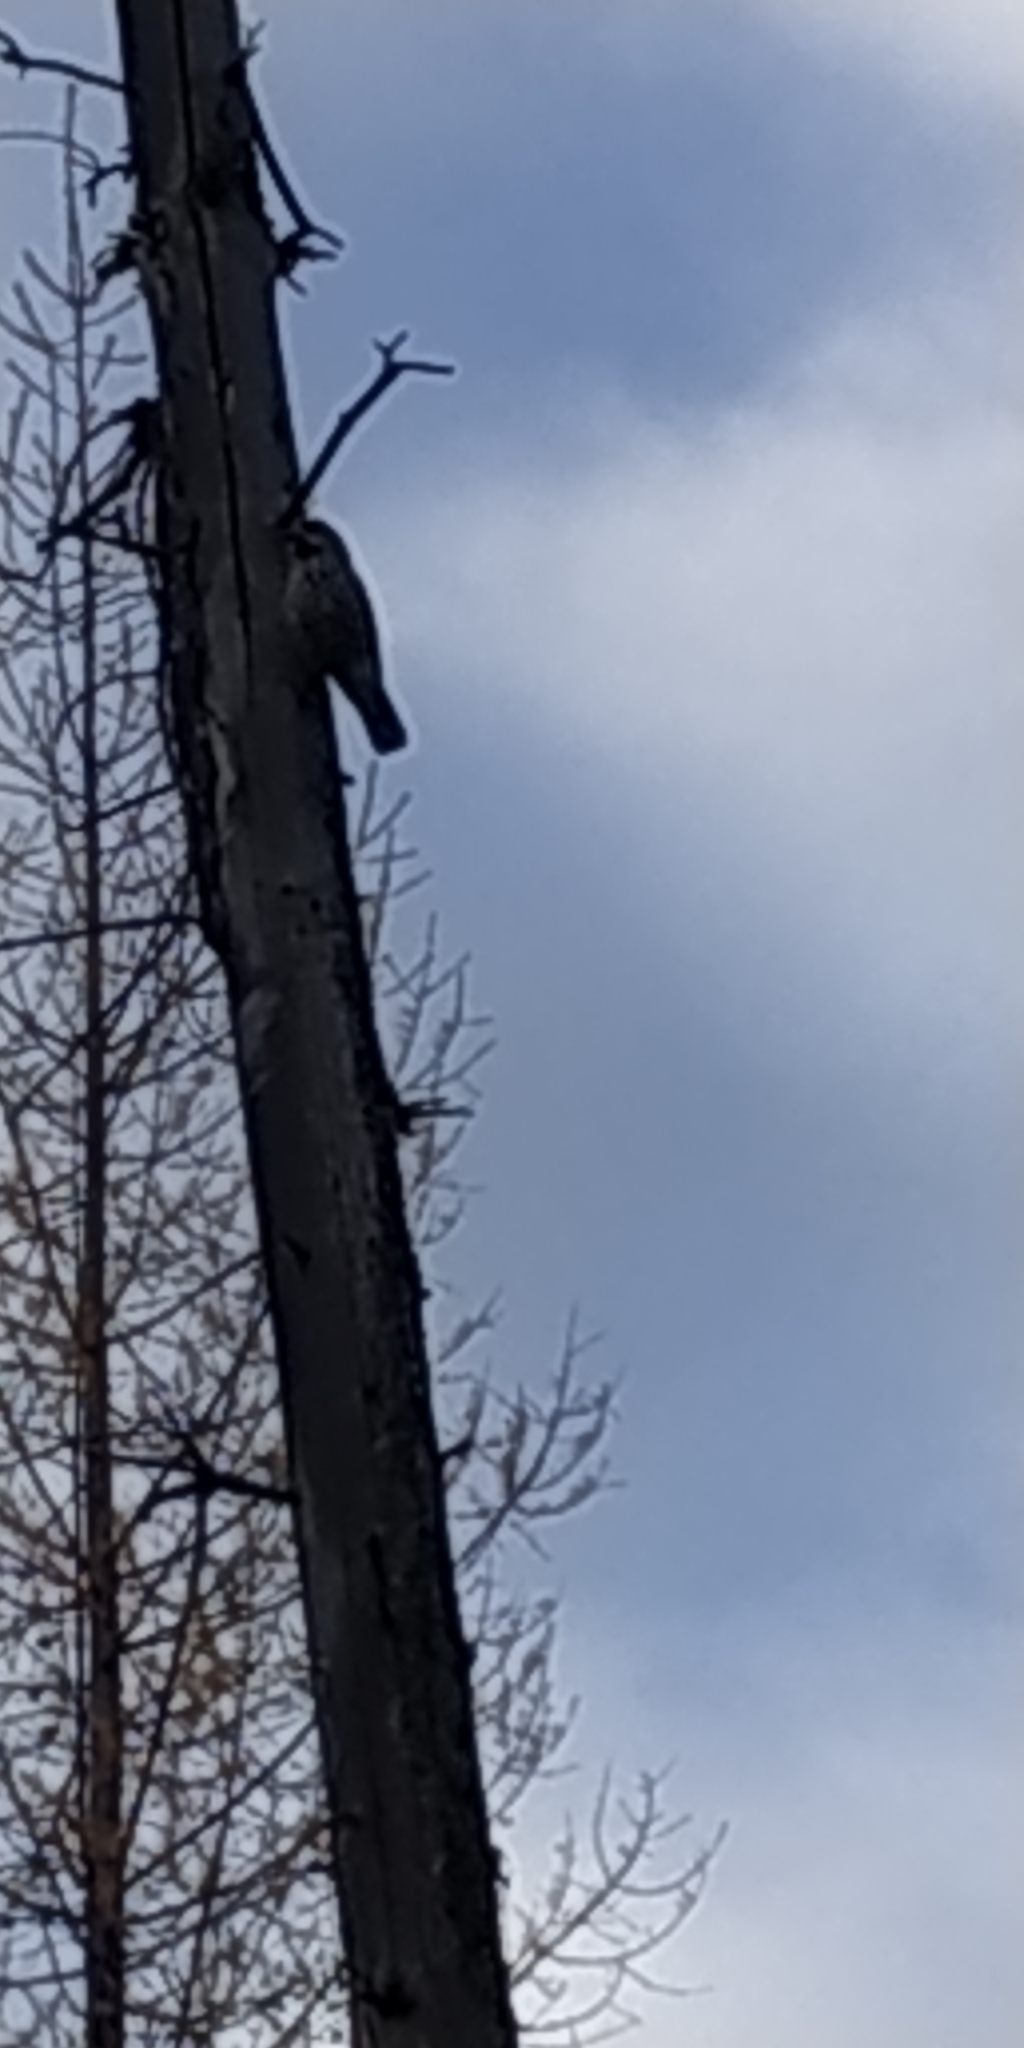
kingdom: Animalia
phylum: Chordata
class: Aves
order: Passeriformes
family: Corvidae
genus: Nucifraga
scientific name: Nucifraga caryocatactes
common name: Spotted nutcracker
